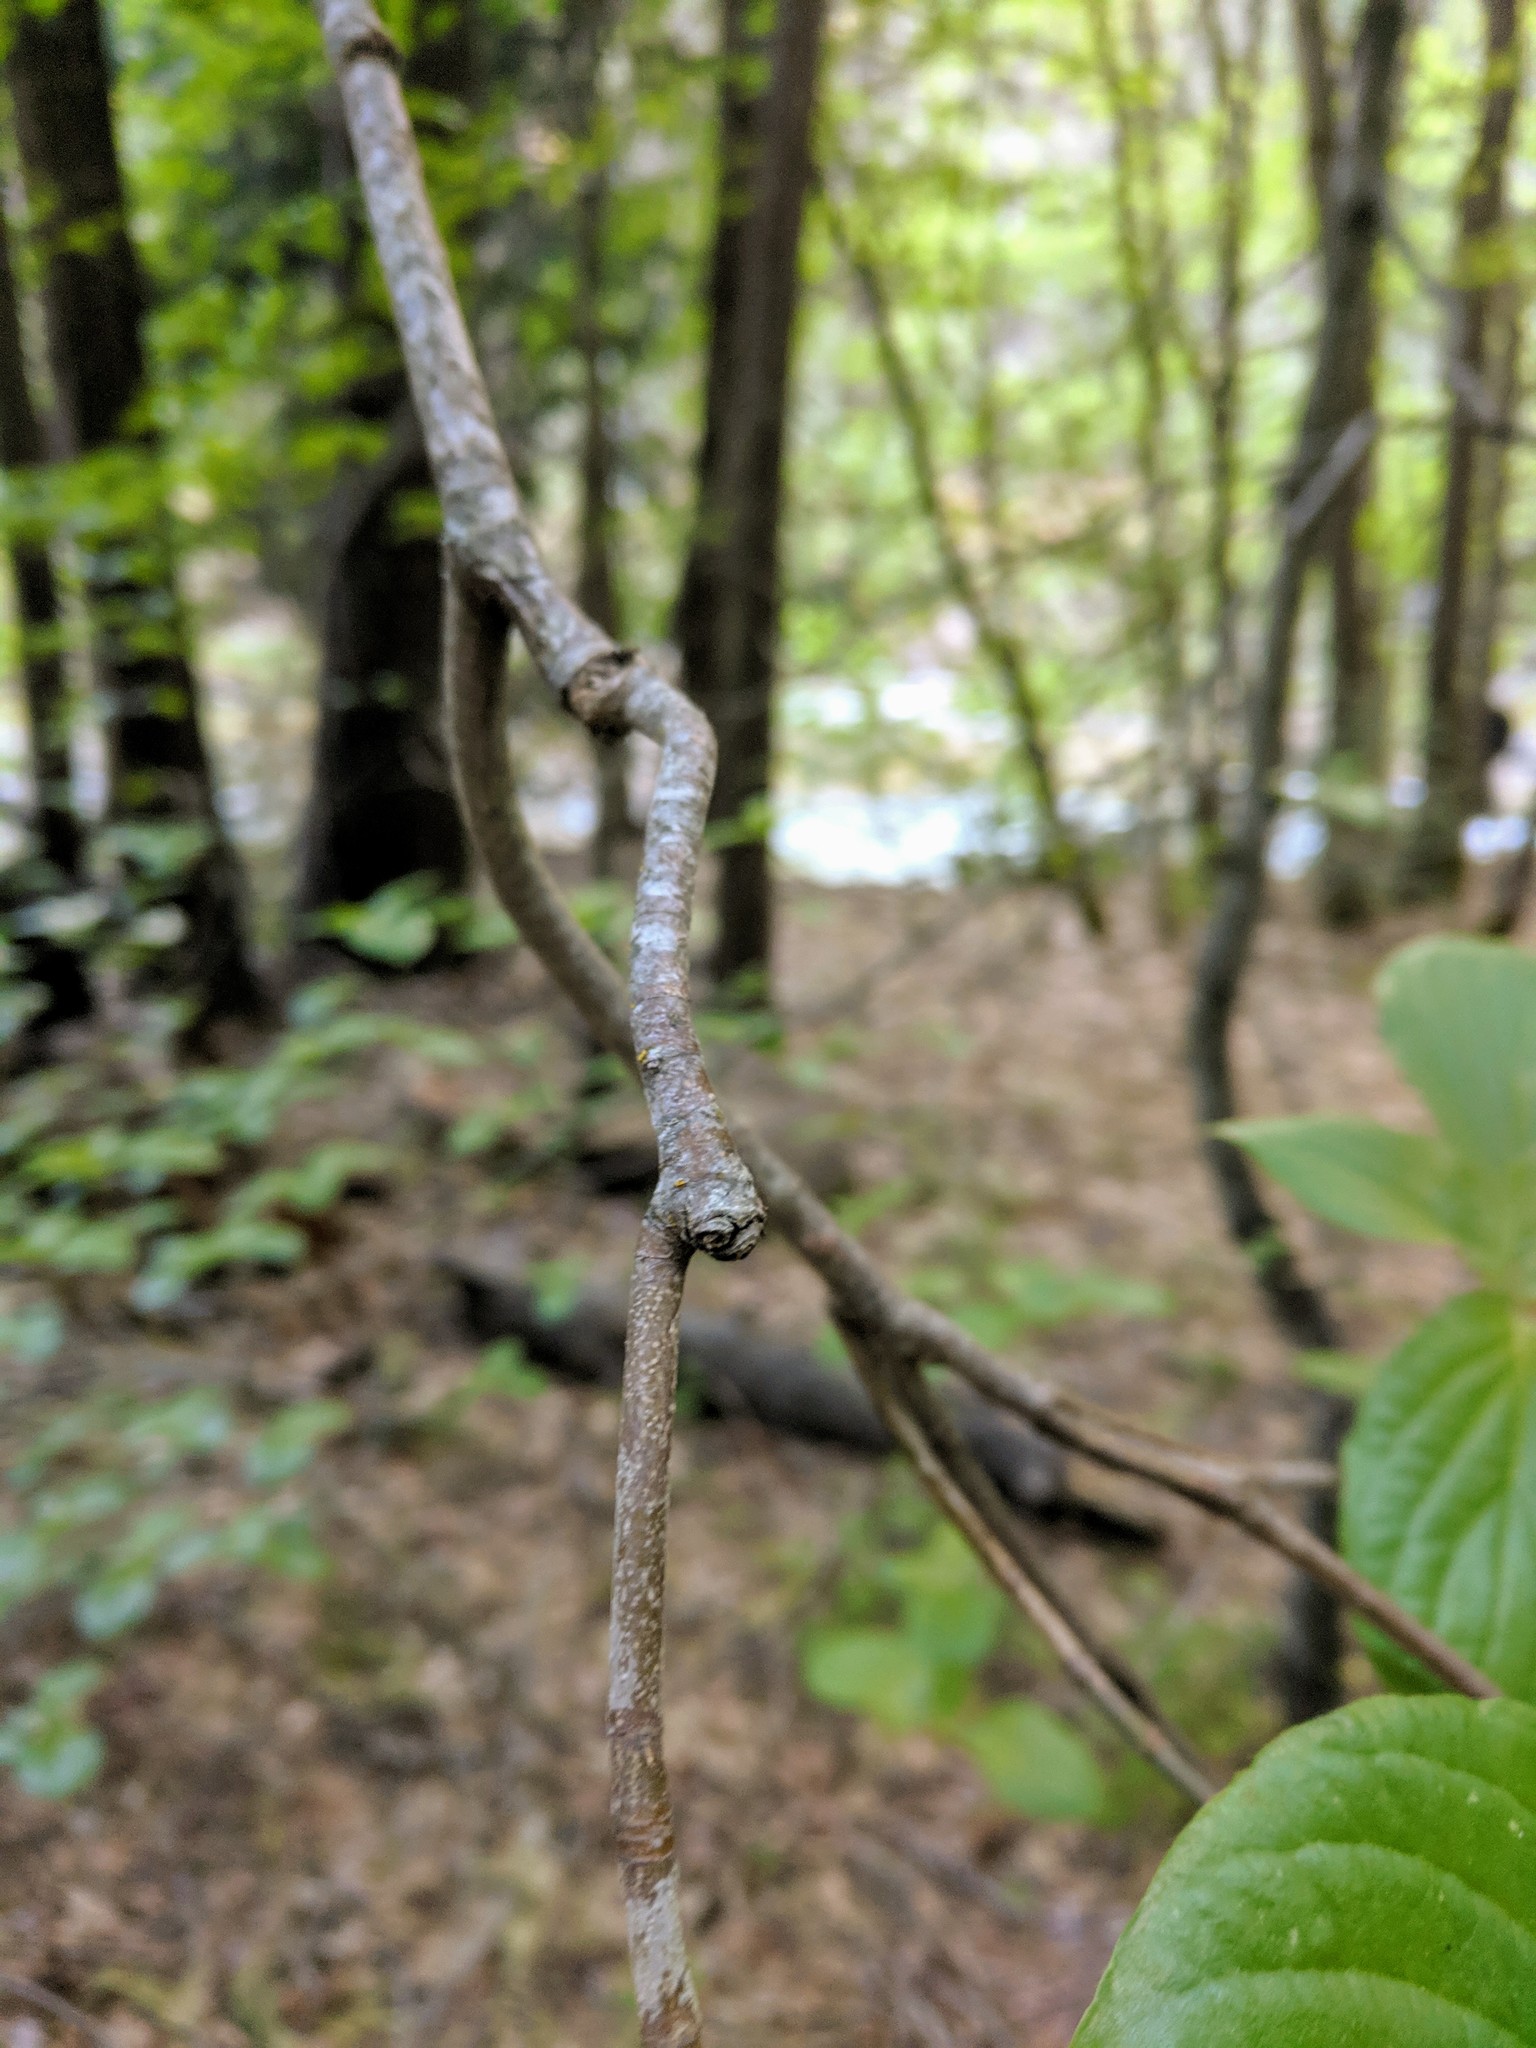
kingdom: Plantae
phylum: Tracheophyta
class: Magnoliopsida
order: Cornales
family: Cornaceae
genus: Cornus
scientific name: Cornus nuttallii
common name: Pacific dogwood
